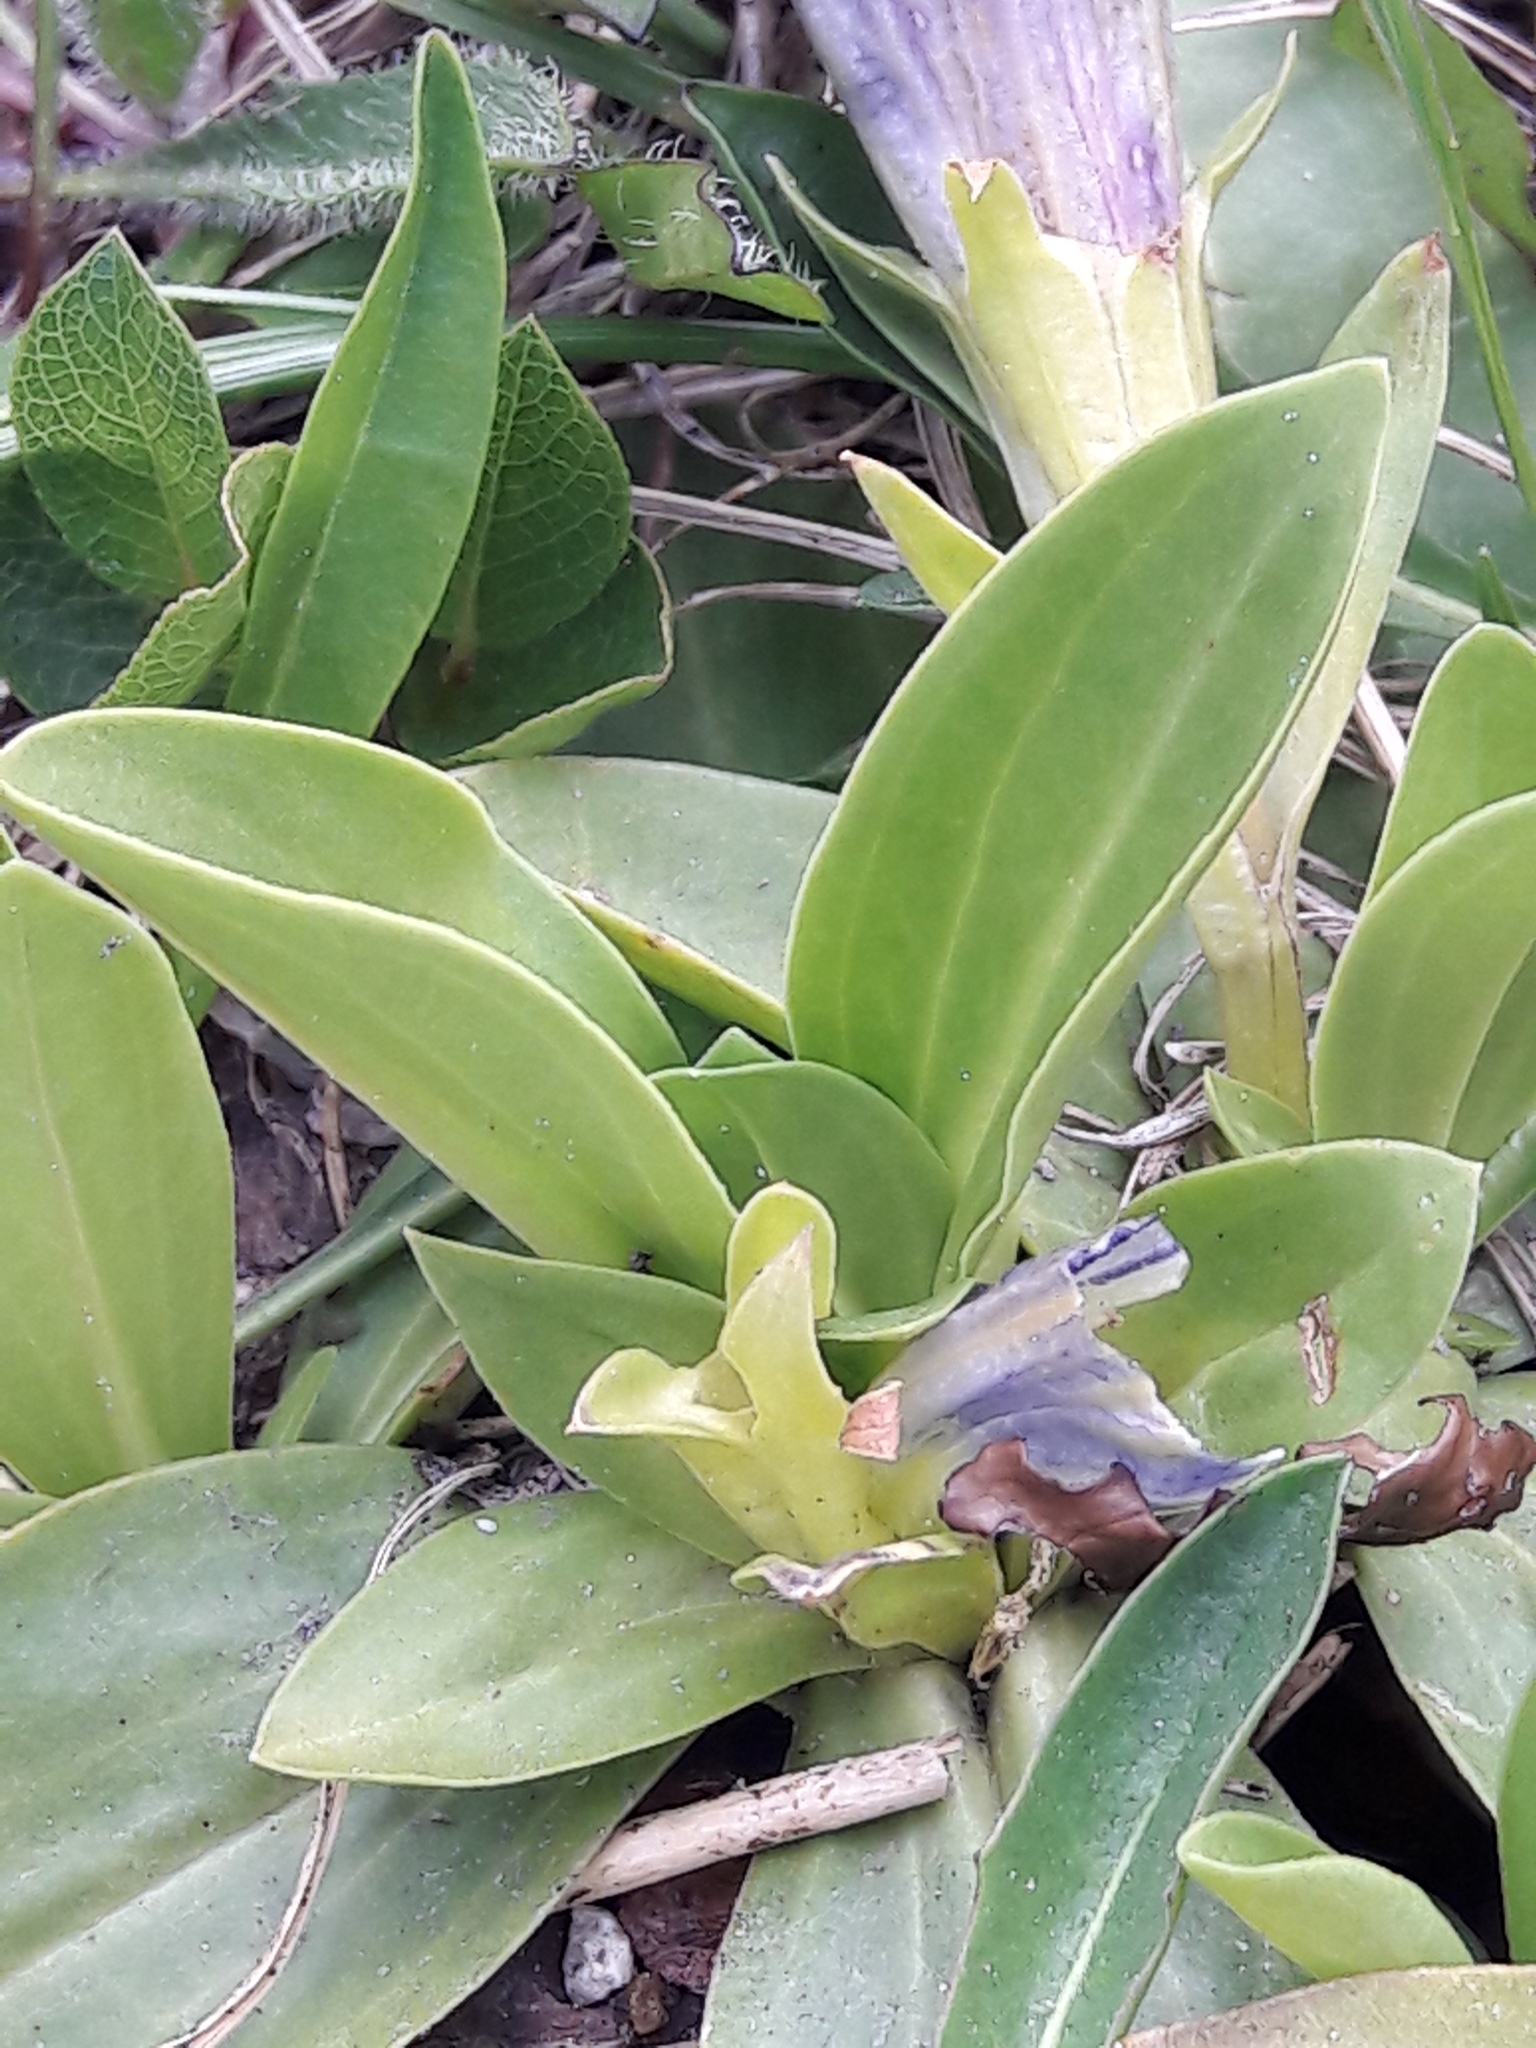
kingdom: Plantae
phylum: Tracheophyta
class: Magnoliopsida
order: Gentianales
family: Gentianaceae
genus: Gentiana
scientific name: Gentiana acaulis
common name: Trumpet gentian
